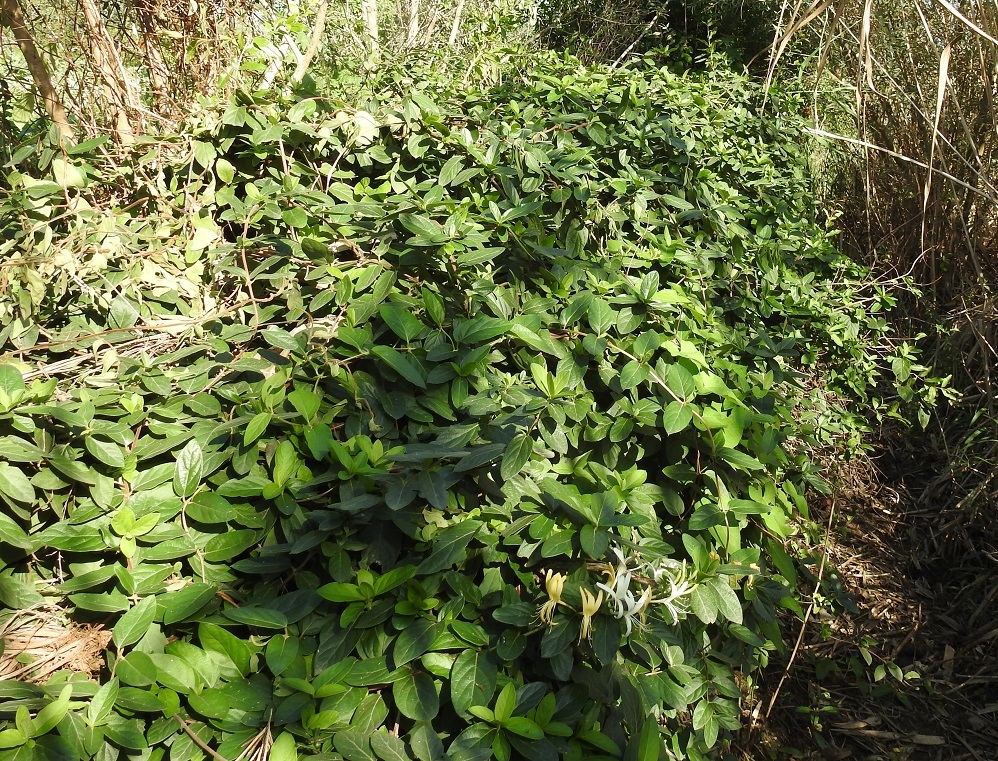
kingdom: Plantae
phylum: Tracheophyta
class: Magnoliopsida
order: Dipsacales
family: Caprifoliaceae
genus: Lonicera
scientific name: Lonicera japonica
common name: Japanese honeysuckle
